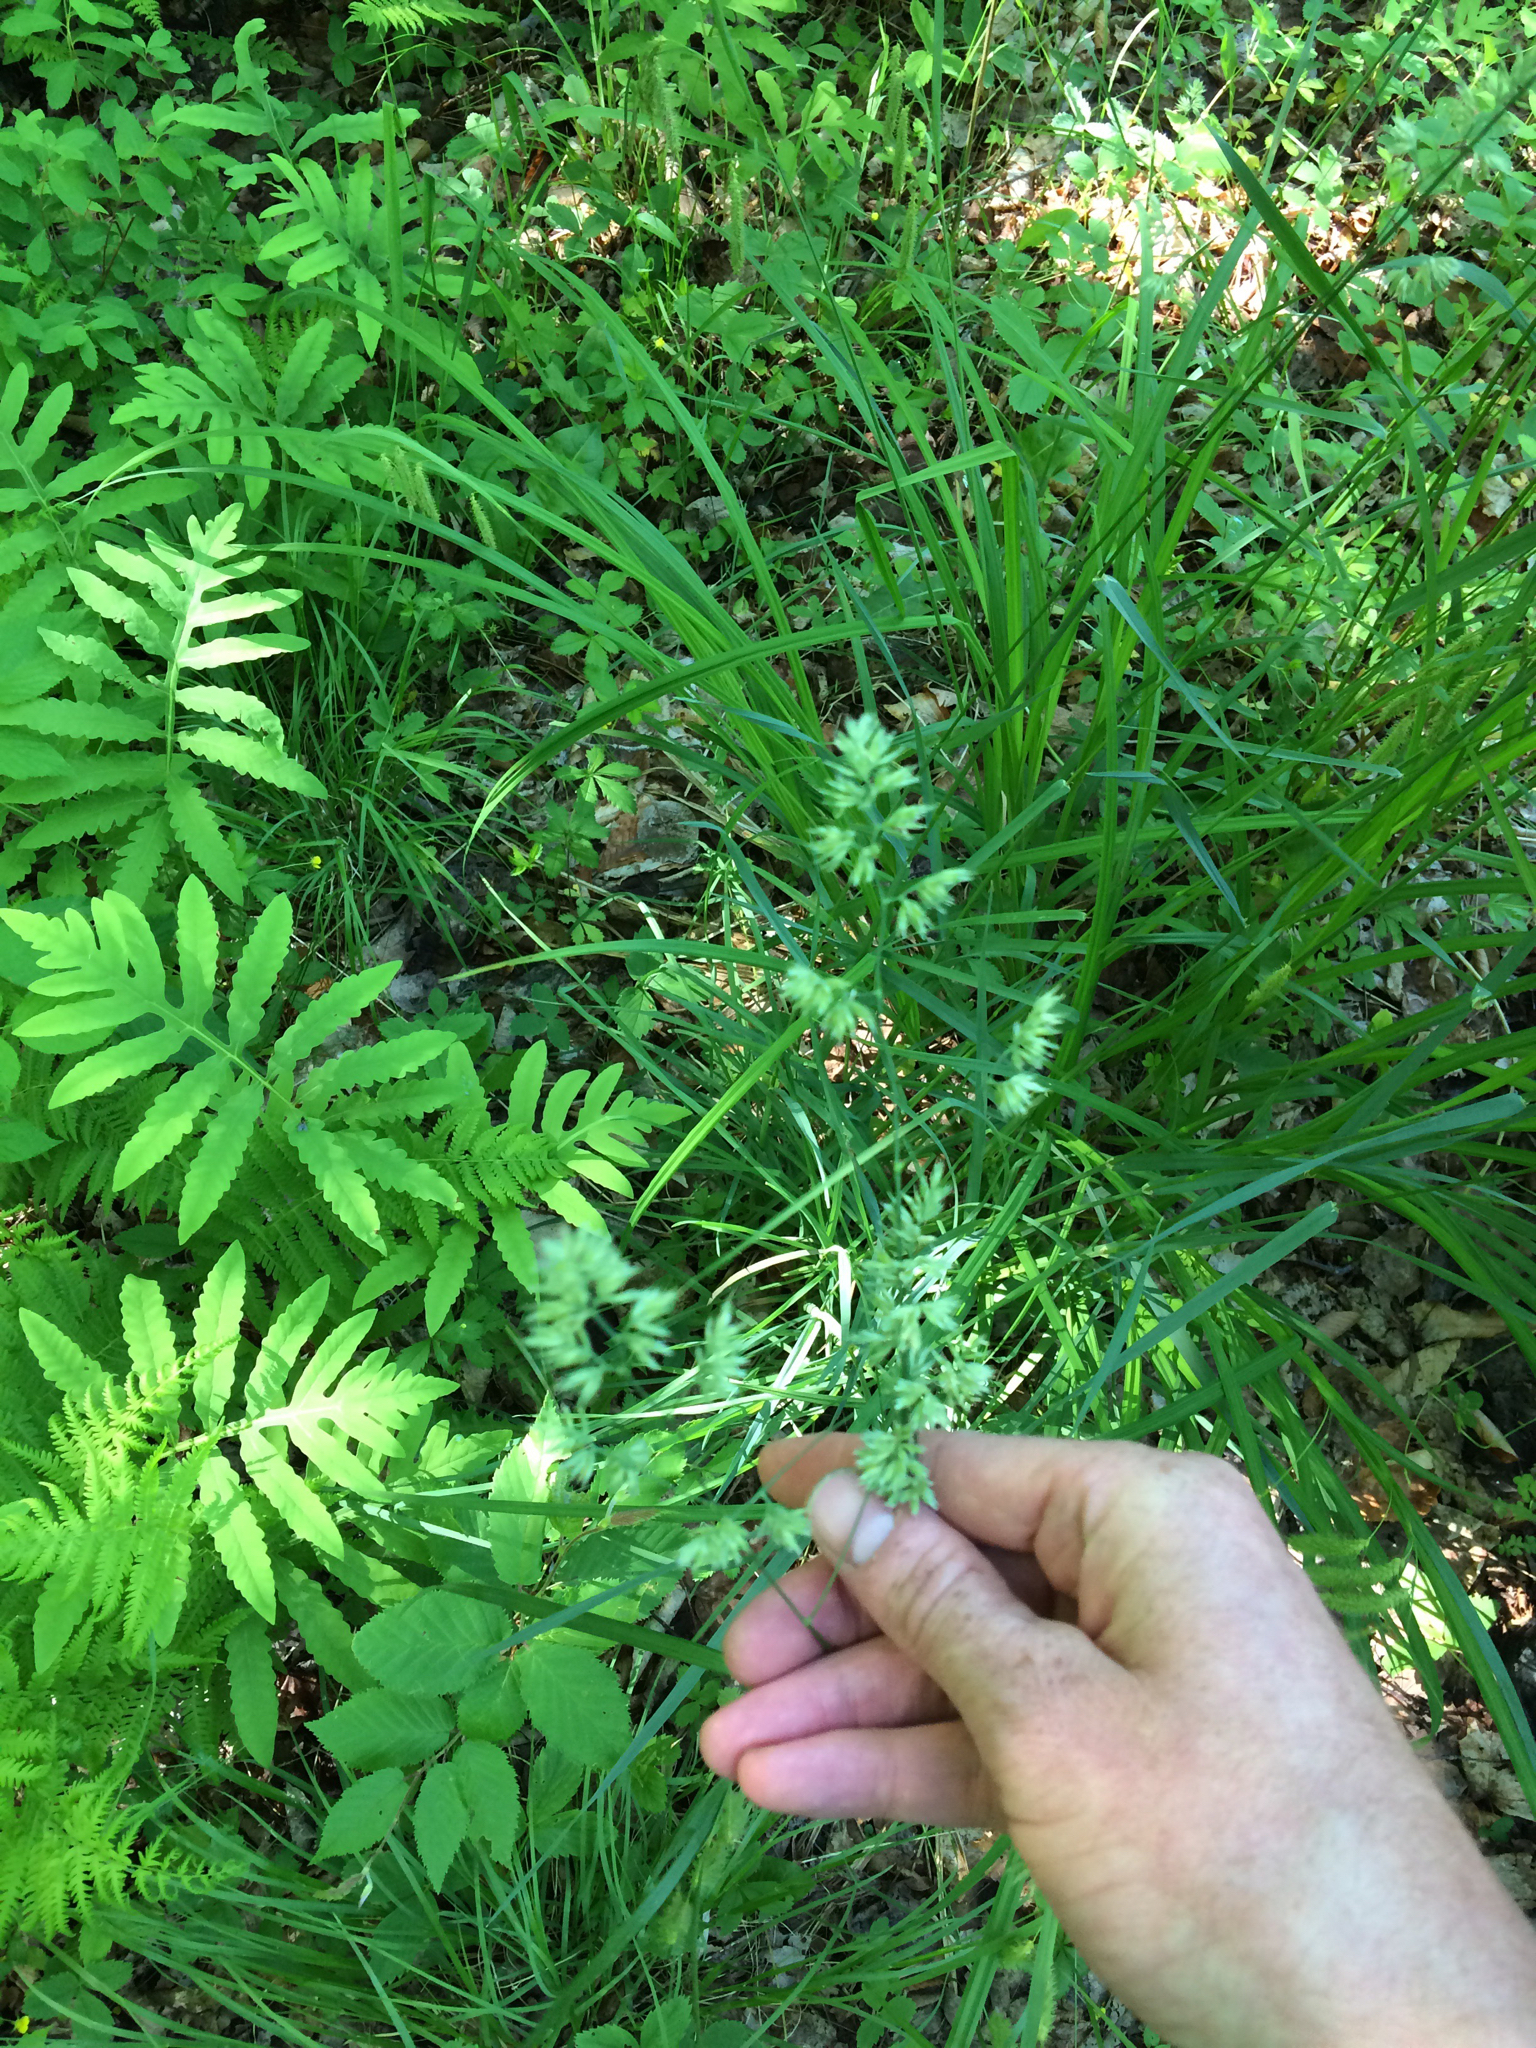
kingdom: Plantae
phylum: Tracheophyta
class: Liliopsida
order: Poales
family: Poaceae
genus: Dactylis
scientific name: Dactylis glomerata
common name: Orchardgrass
